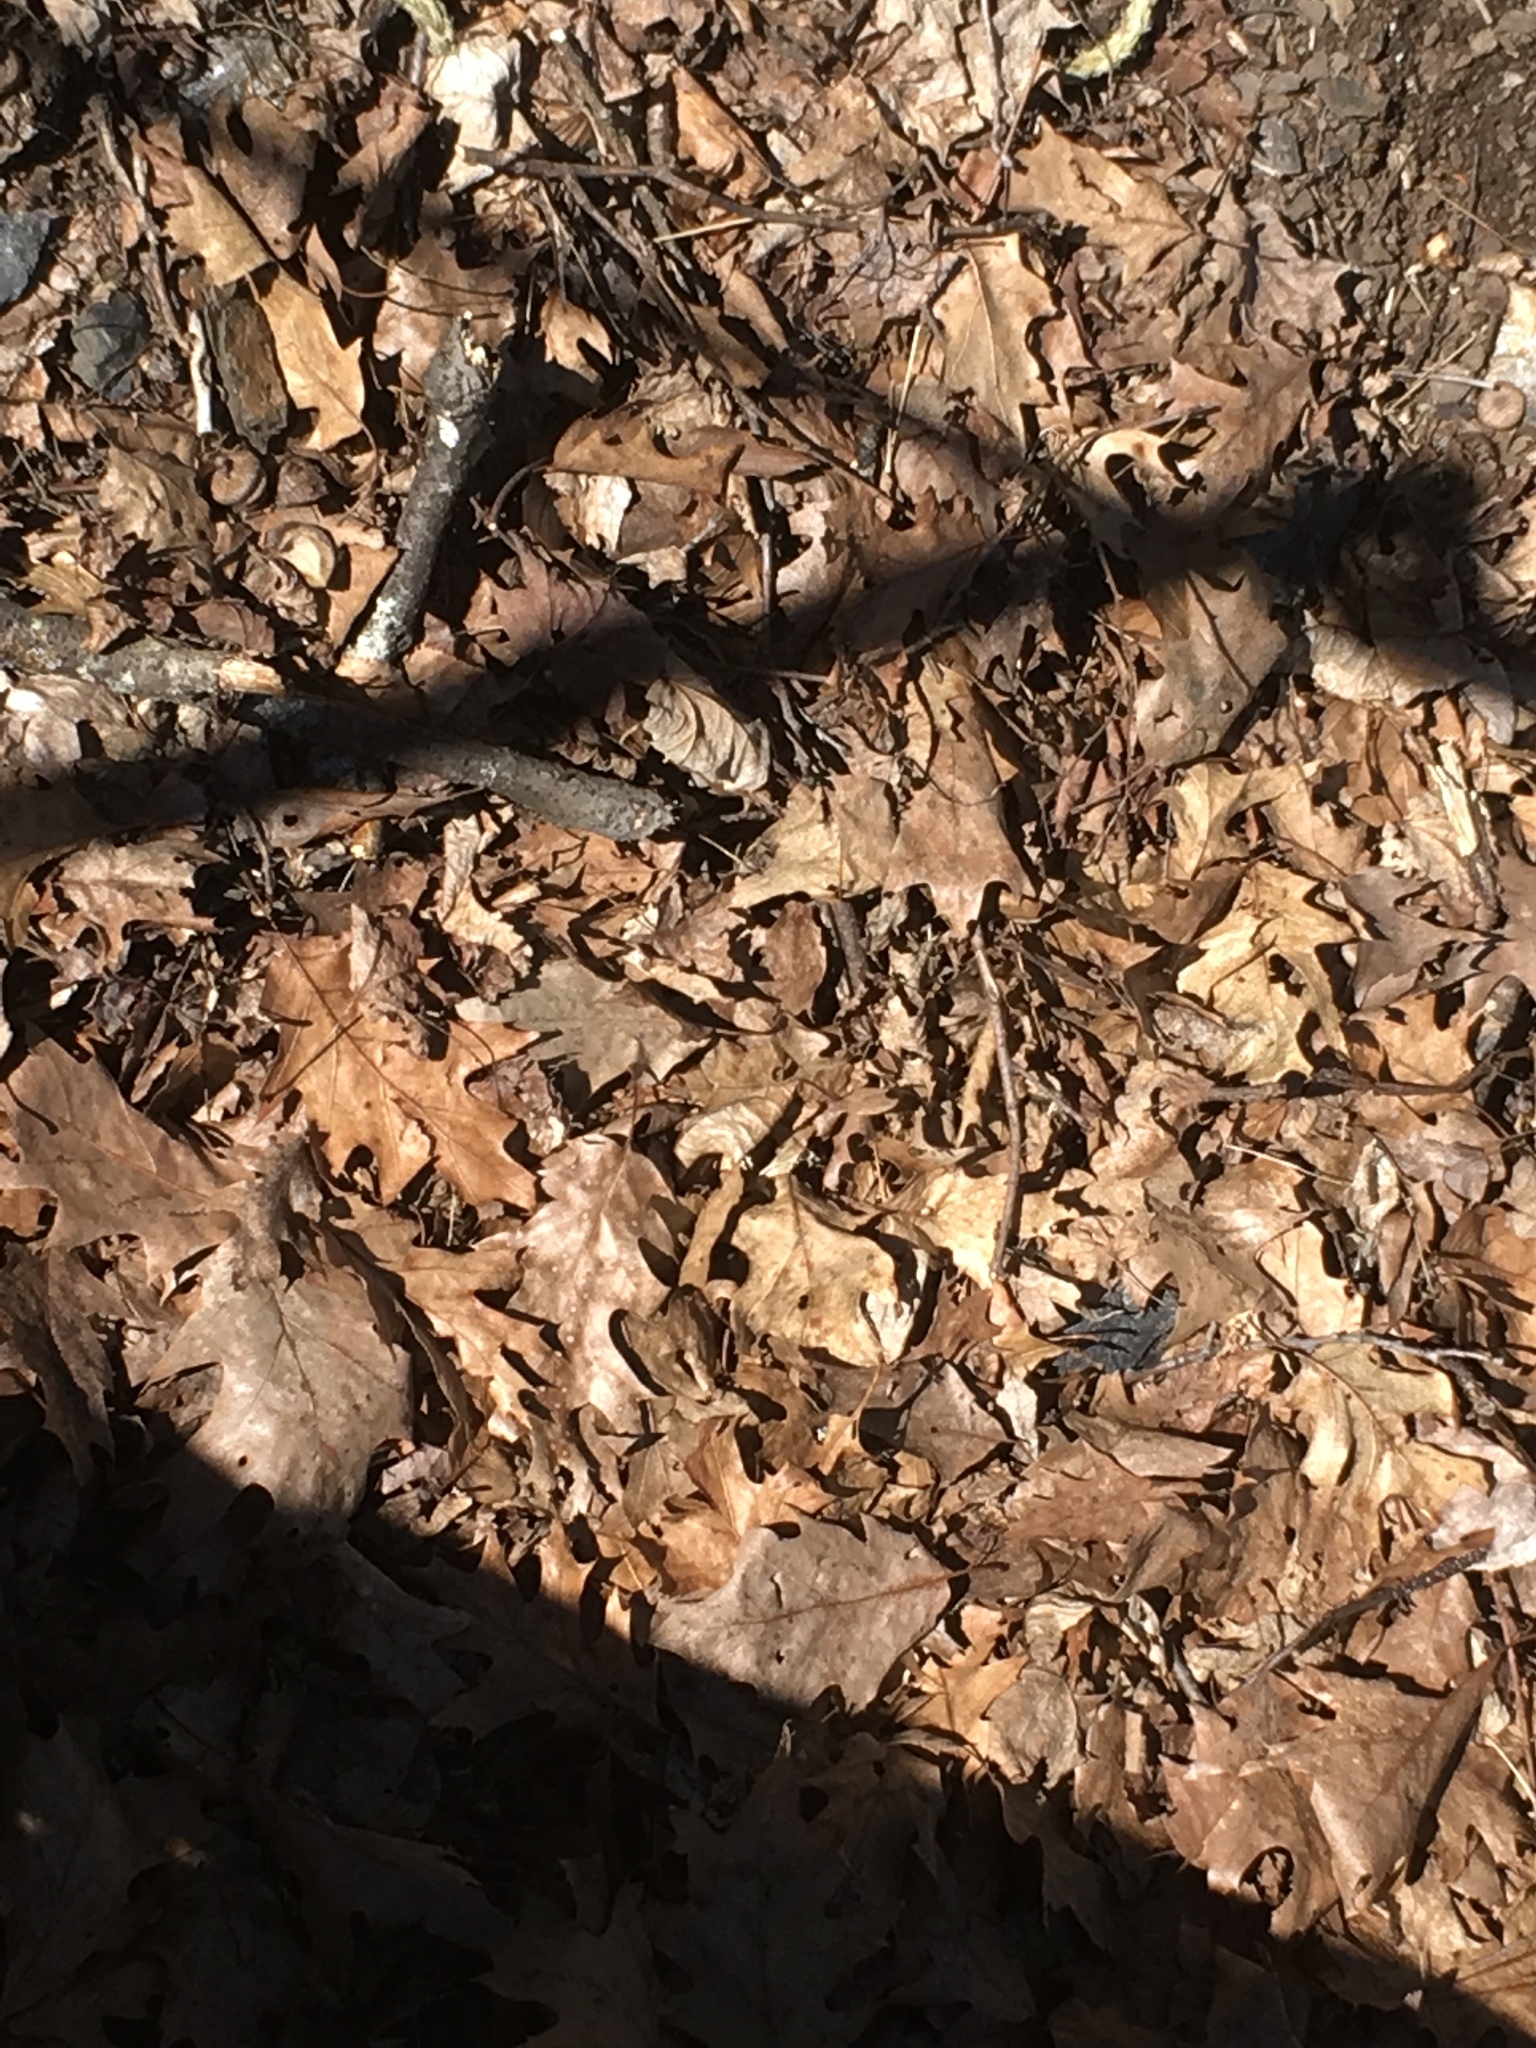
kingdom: Plantae
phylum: Tracheophyta
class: Magnoliopsida
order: Fagales
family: Fagaceae
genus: Quercus
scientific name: Quercus rubra
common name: Red oak
